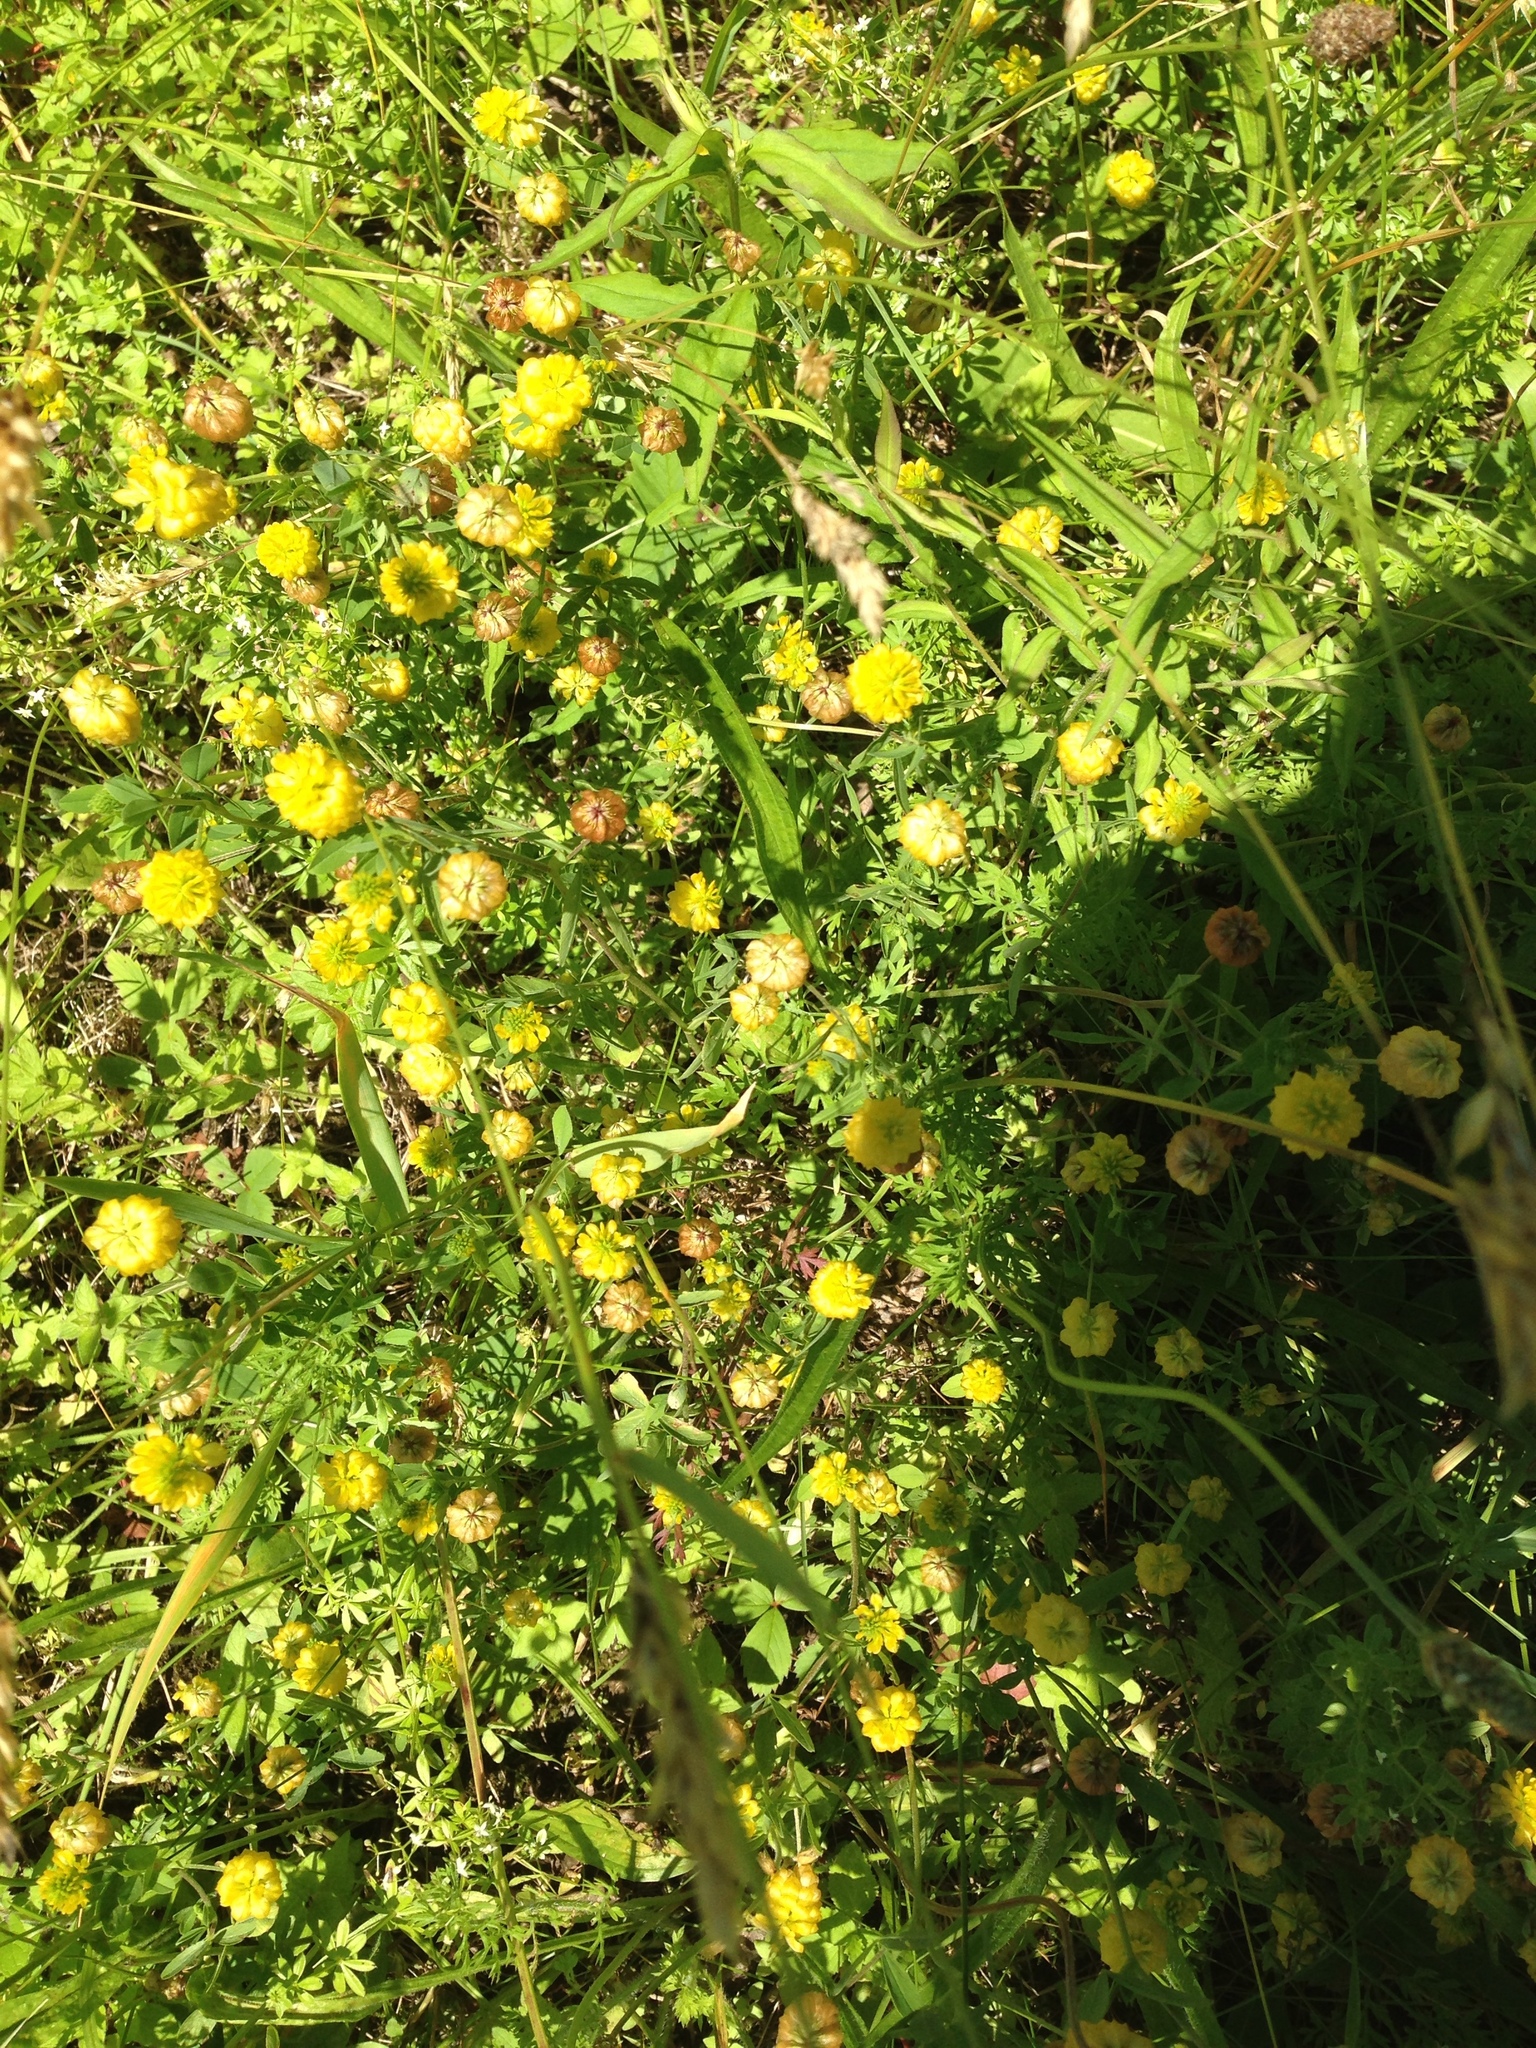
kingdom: Plantae
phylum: Tracheophyta
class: Magnoliopsida
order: Fabales
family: Fabaceae
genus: Trifolium
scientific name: Trifolium campestre
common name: Field clover
